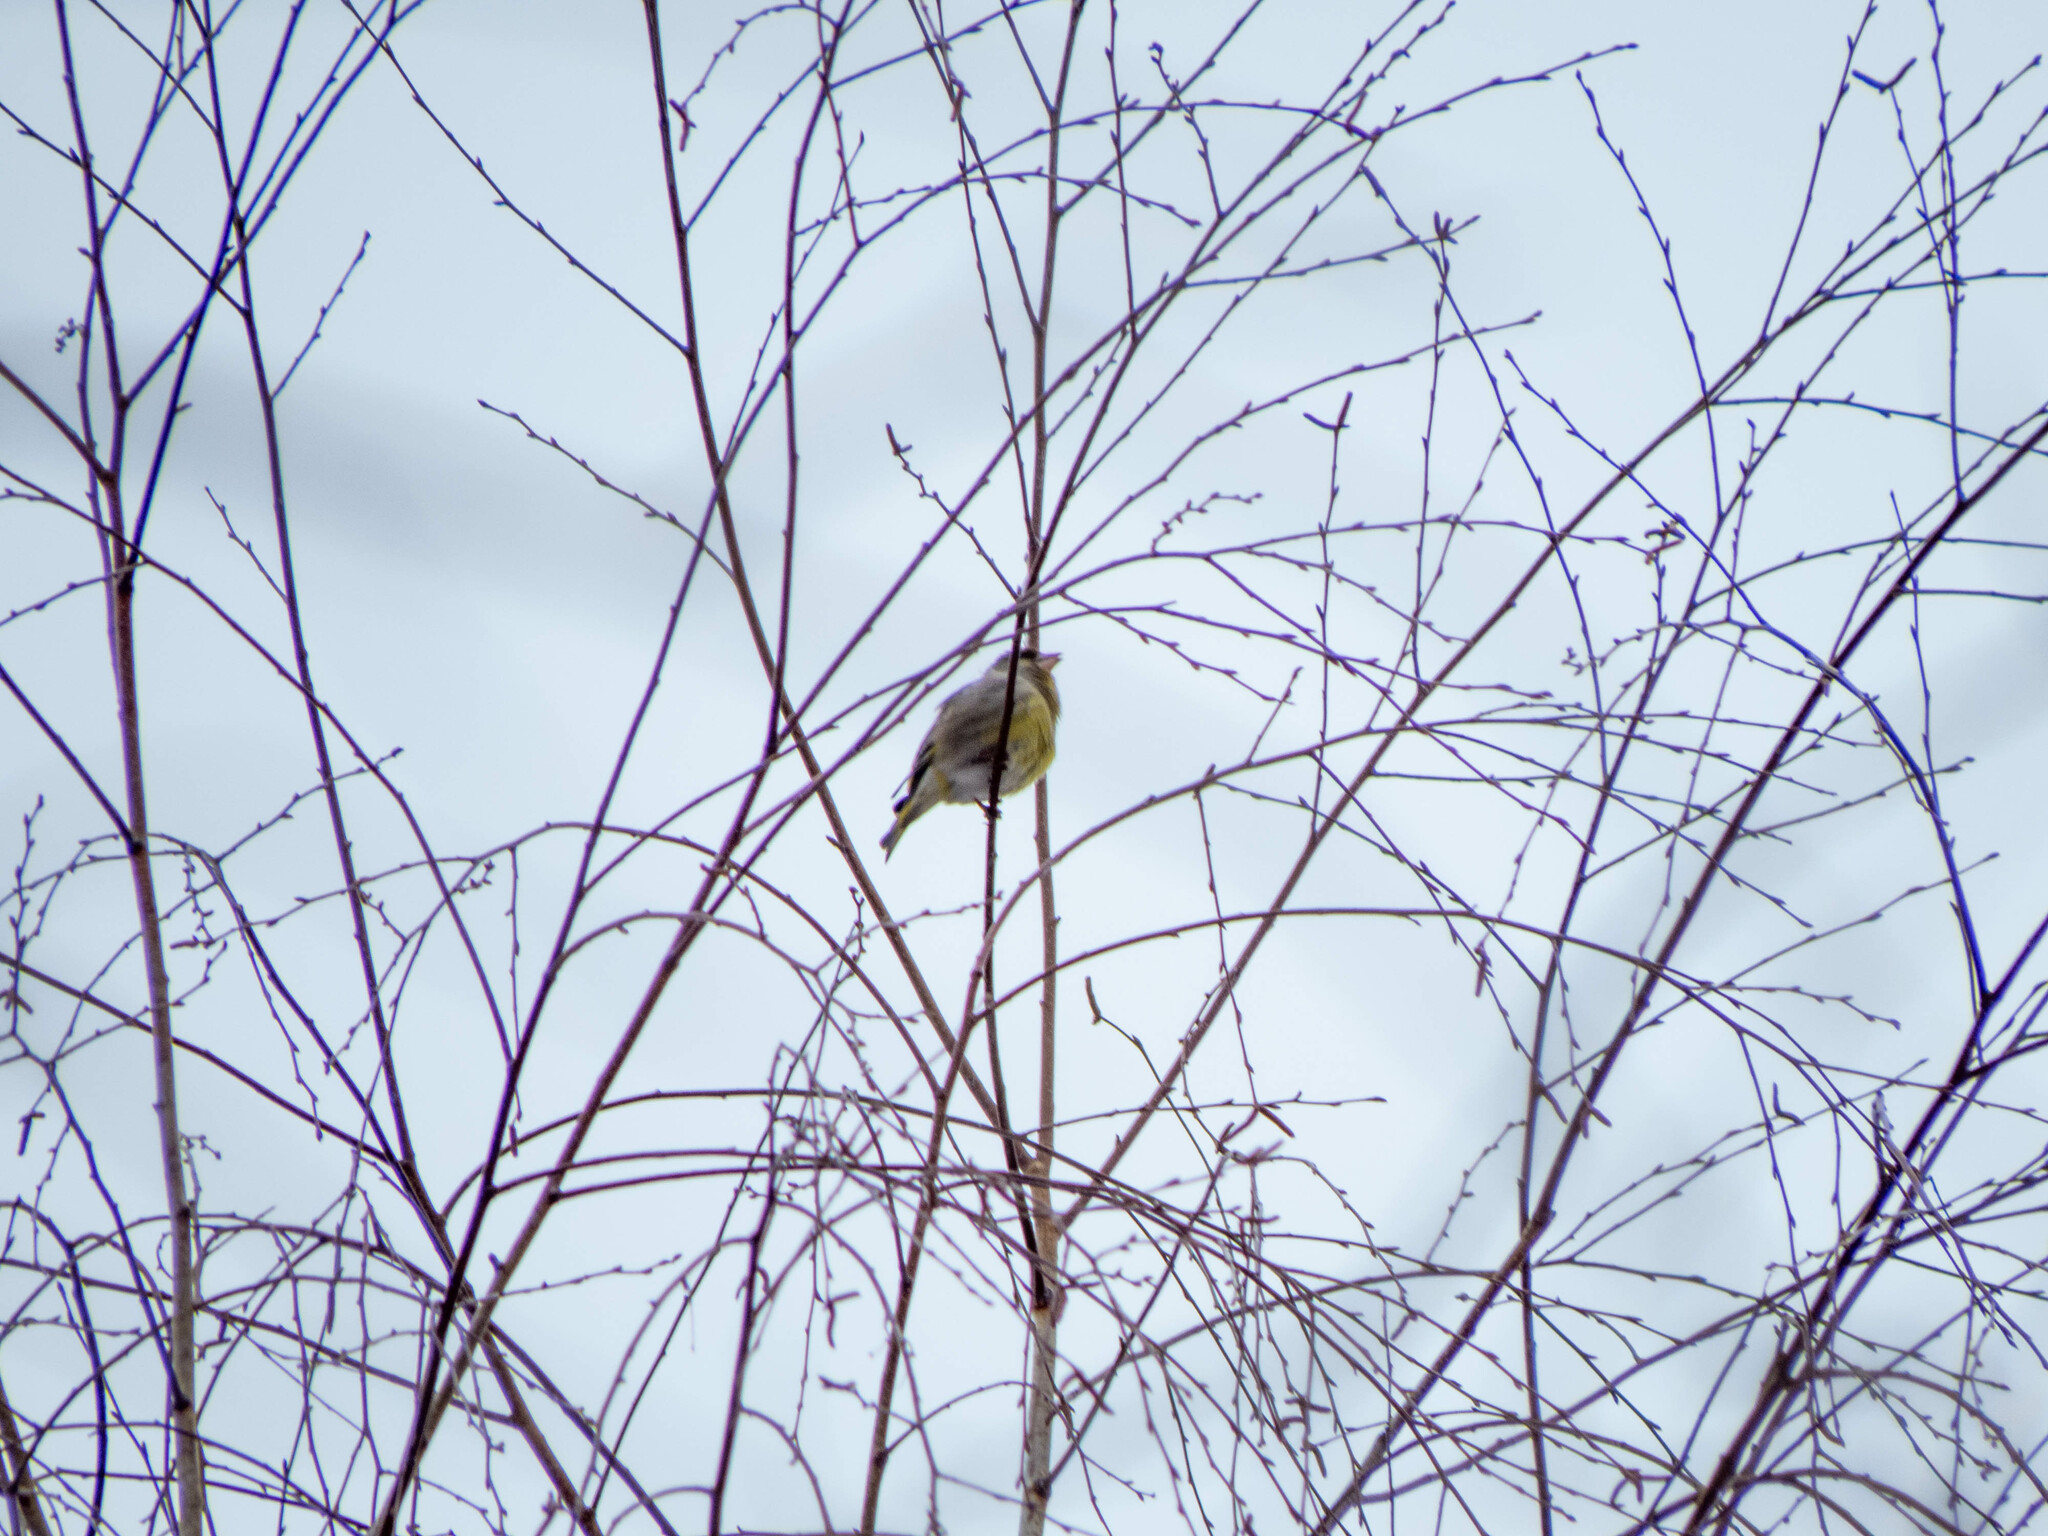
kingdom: Plantae
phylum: Tracheophyta
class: Liliopsida
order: Poales
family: Poaceae
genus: Chloris
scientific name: Chloris chloris
